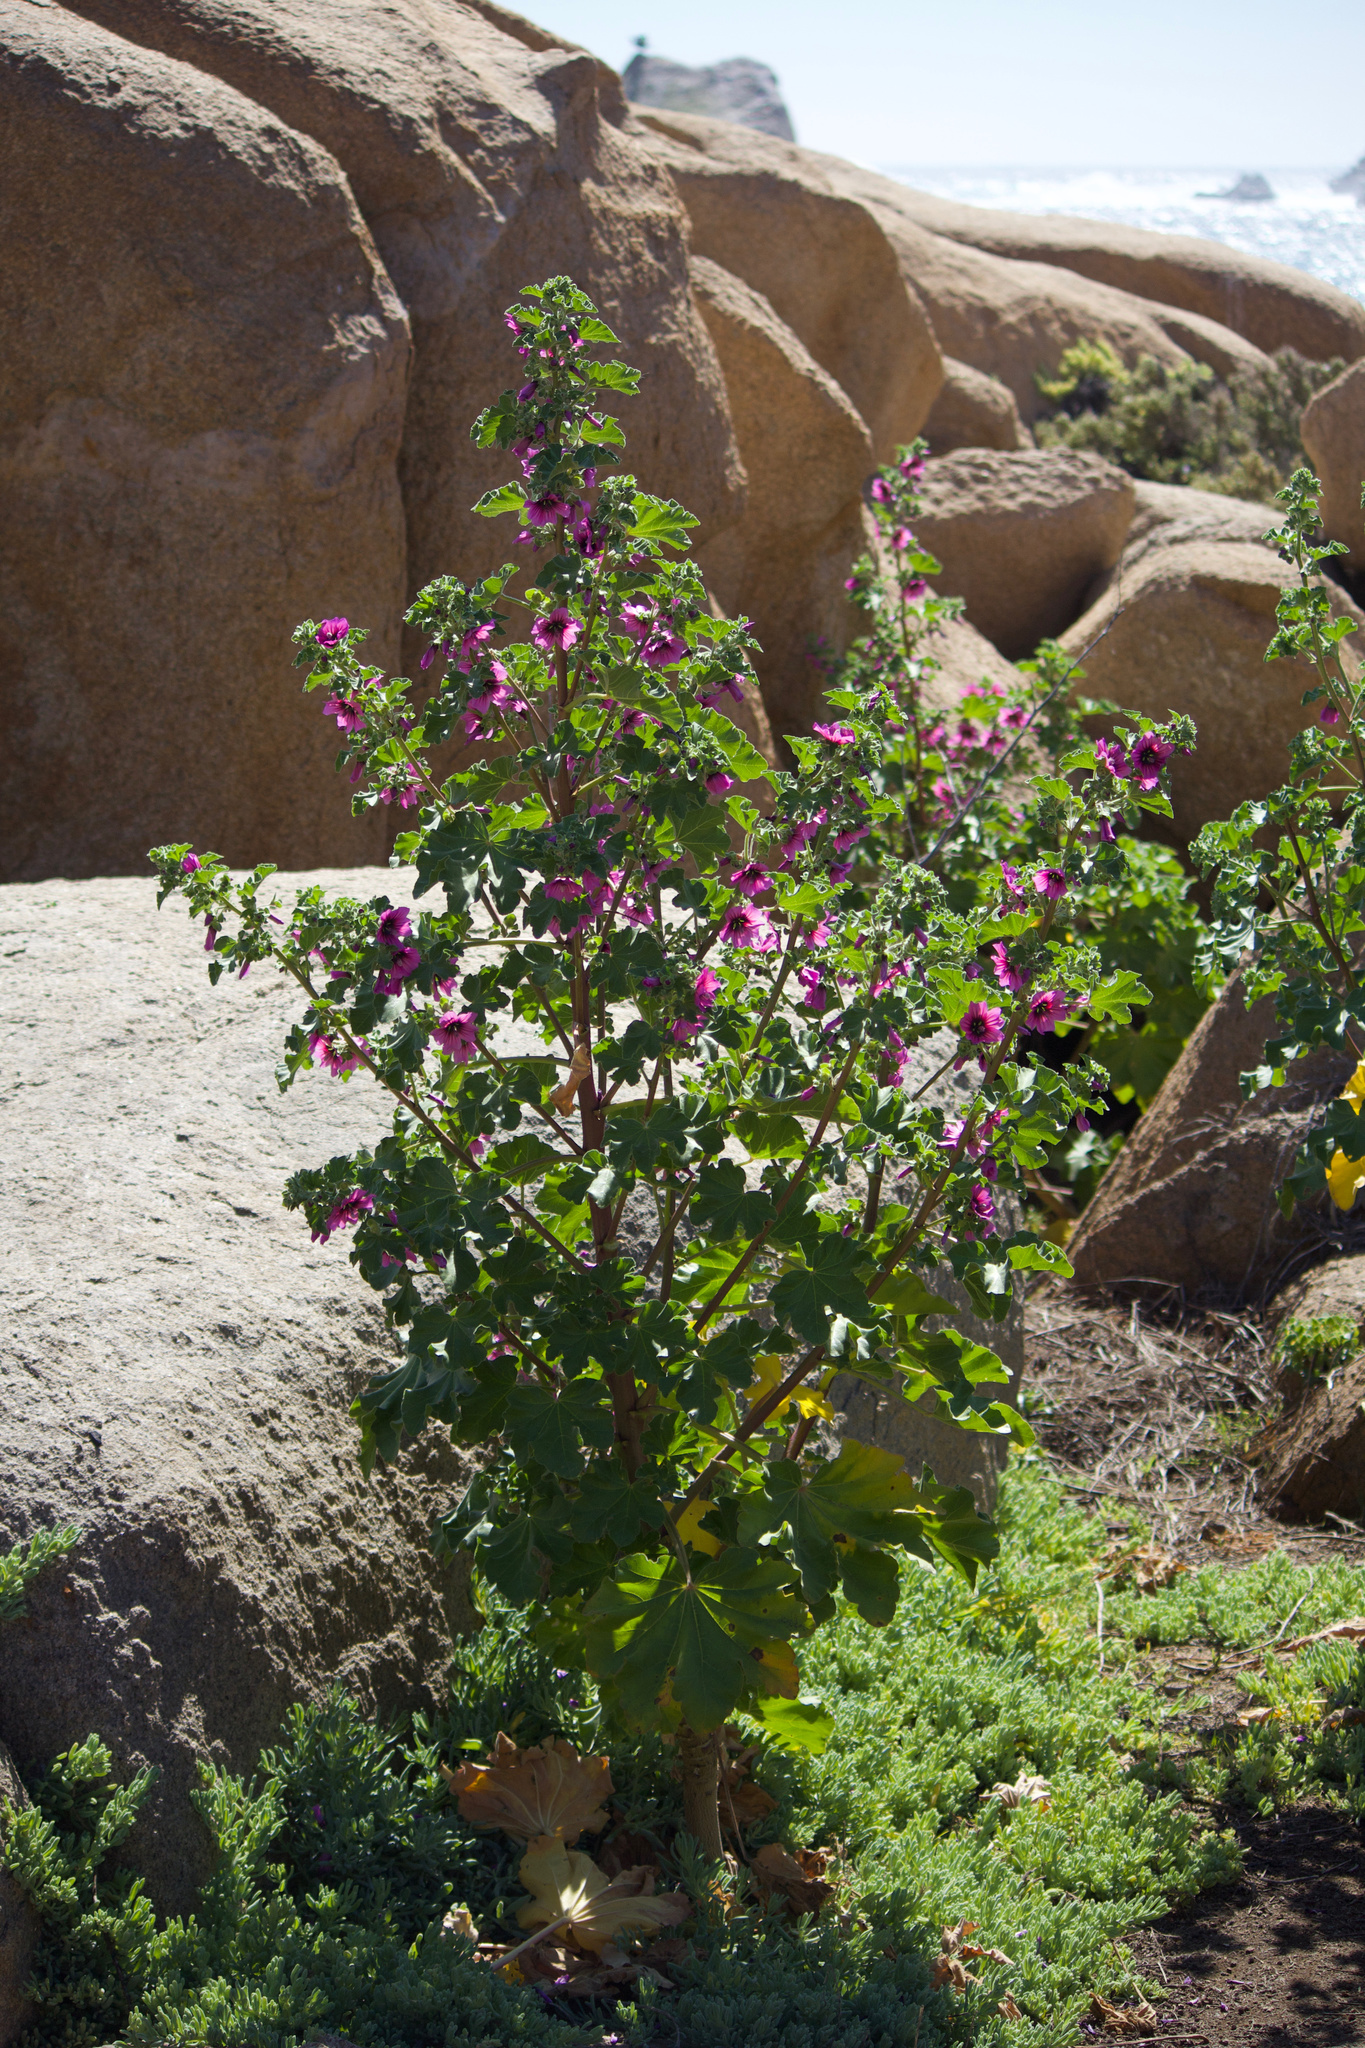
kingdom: Plantae
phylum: Tracheophyta
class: Magnoliopsida
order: Malvales
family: Malvaceae
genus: Malva
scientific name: Malva arborea
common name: Tree mallow
